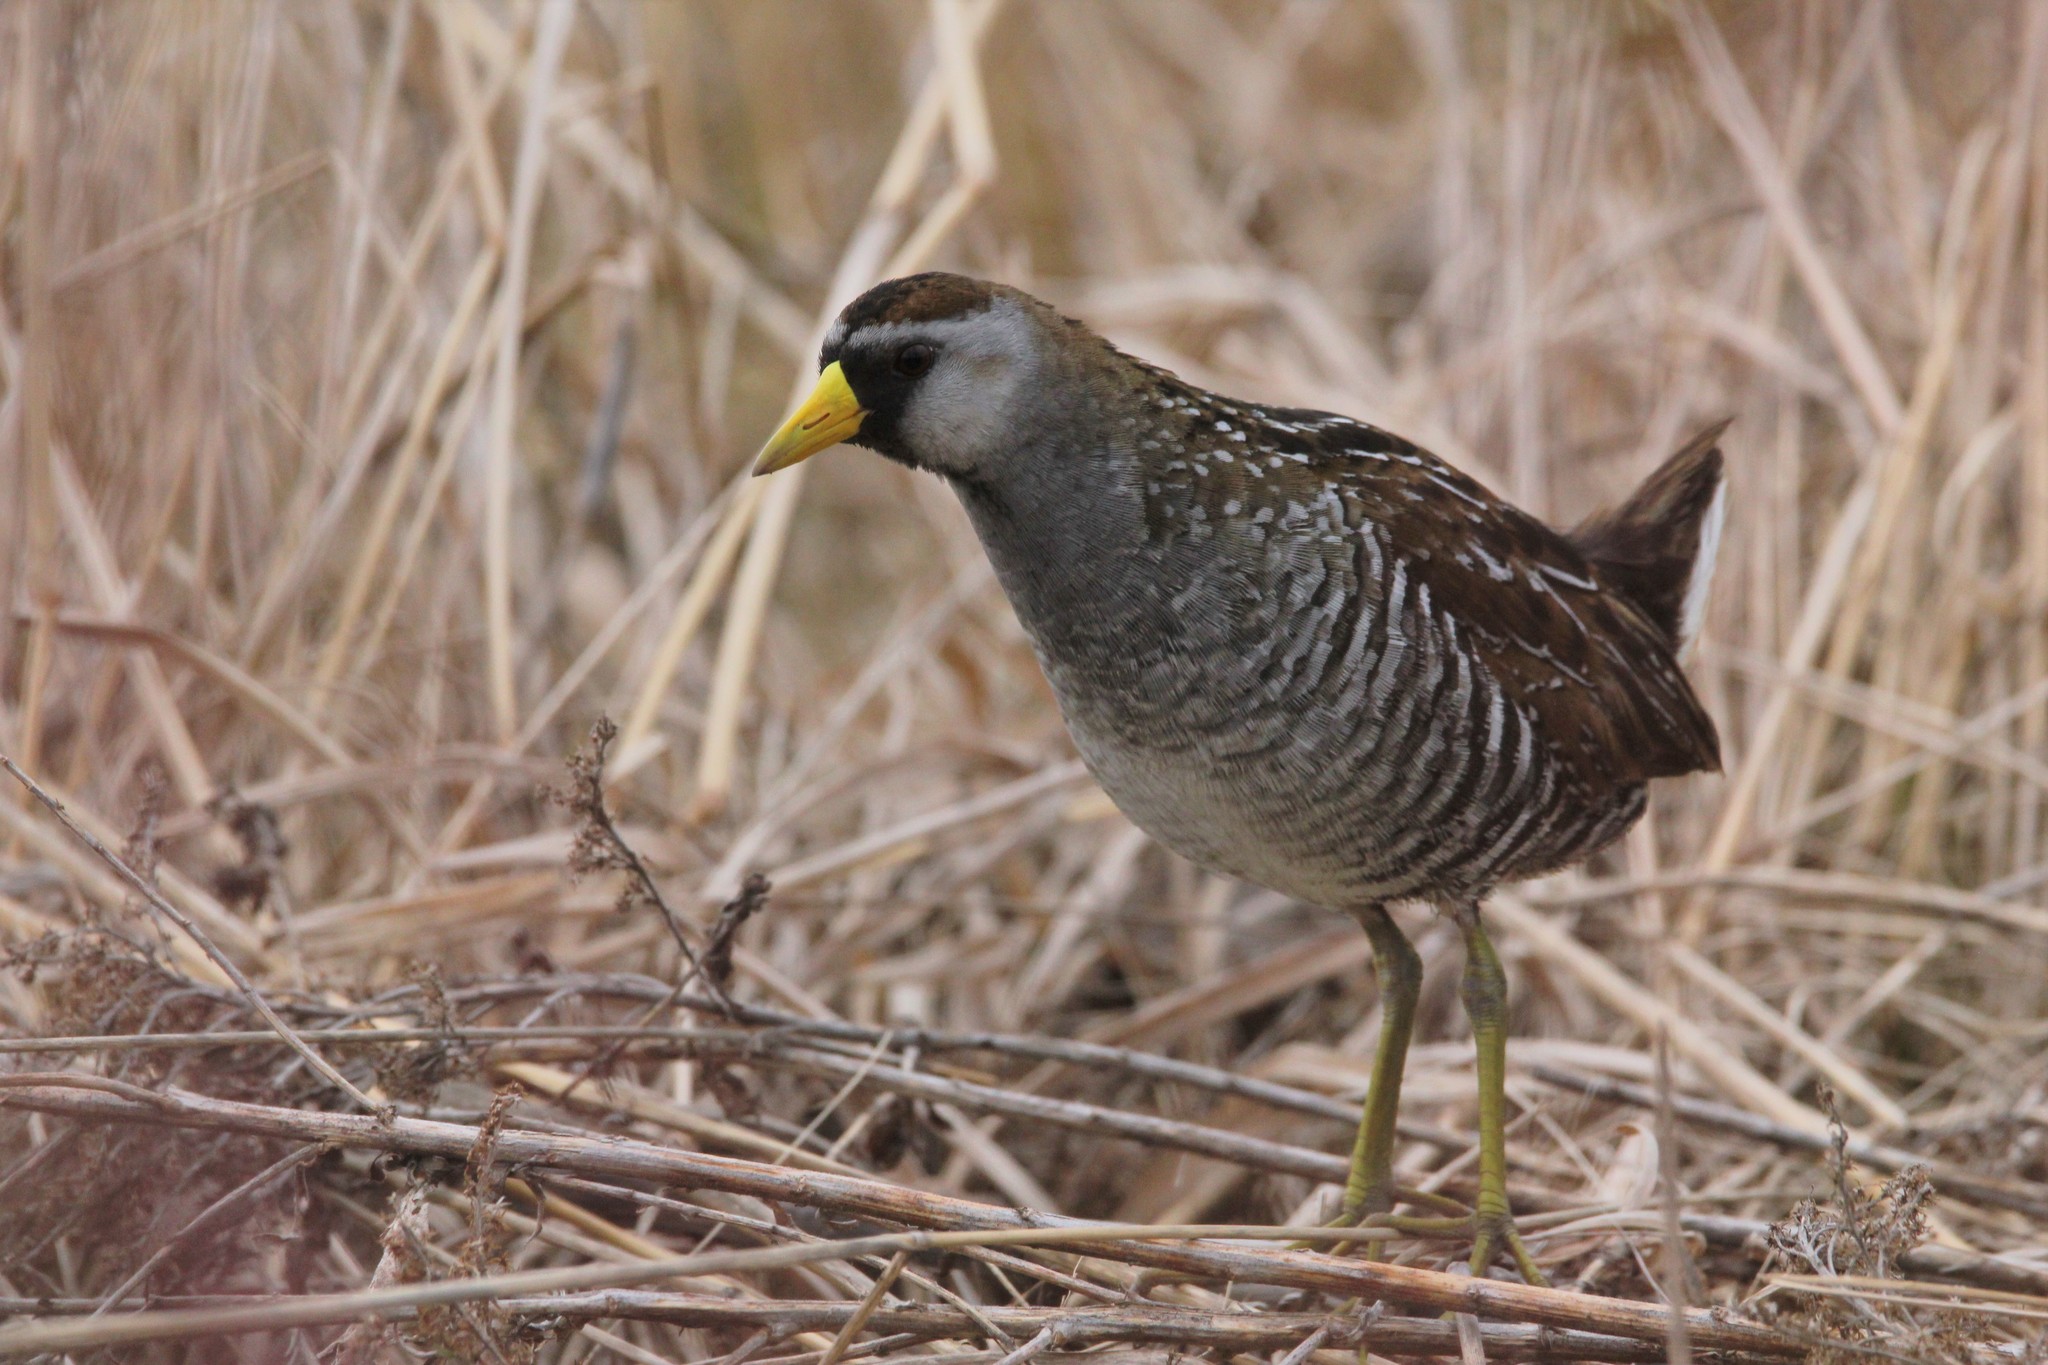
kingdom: Animalia
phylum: Chordata
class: Aves
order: Gruiformes
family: Rallidae
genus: Porzana
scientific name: Porzana carolina
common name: Sora
